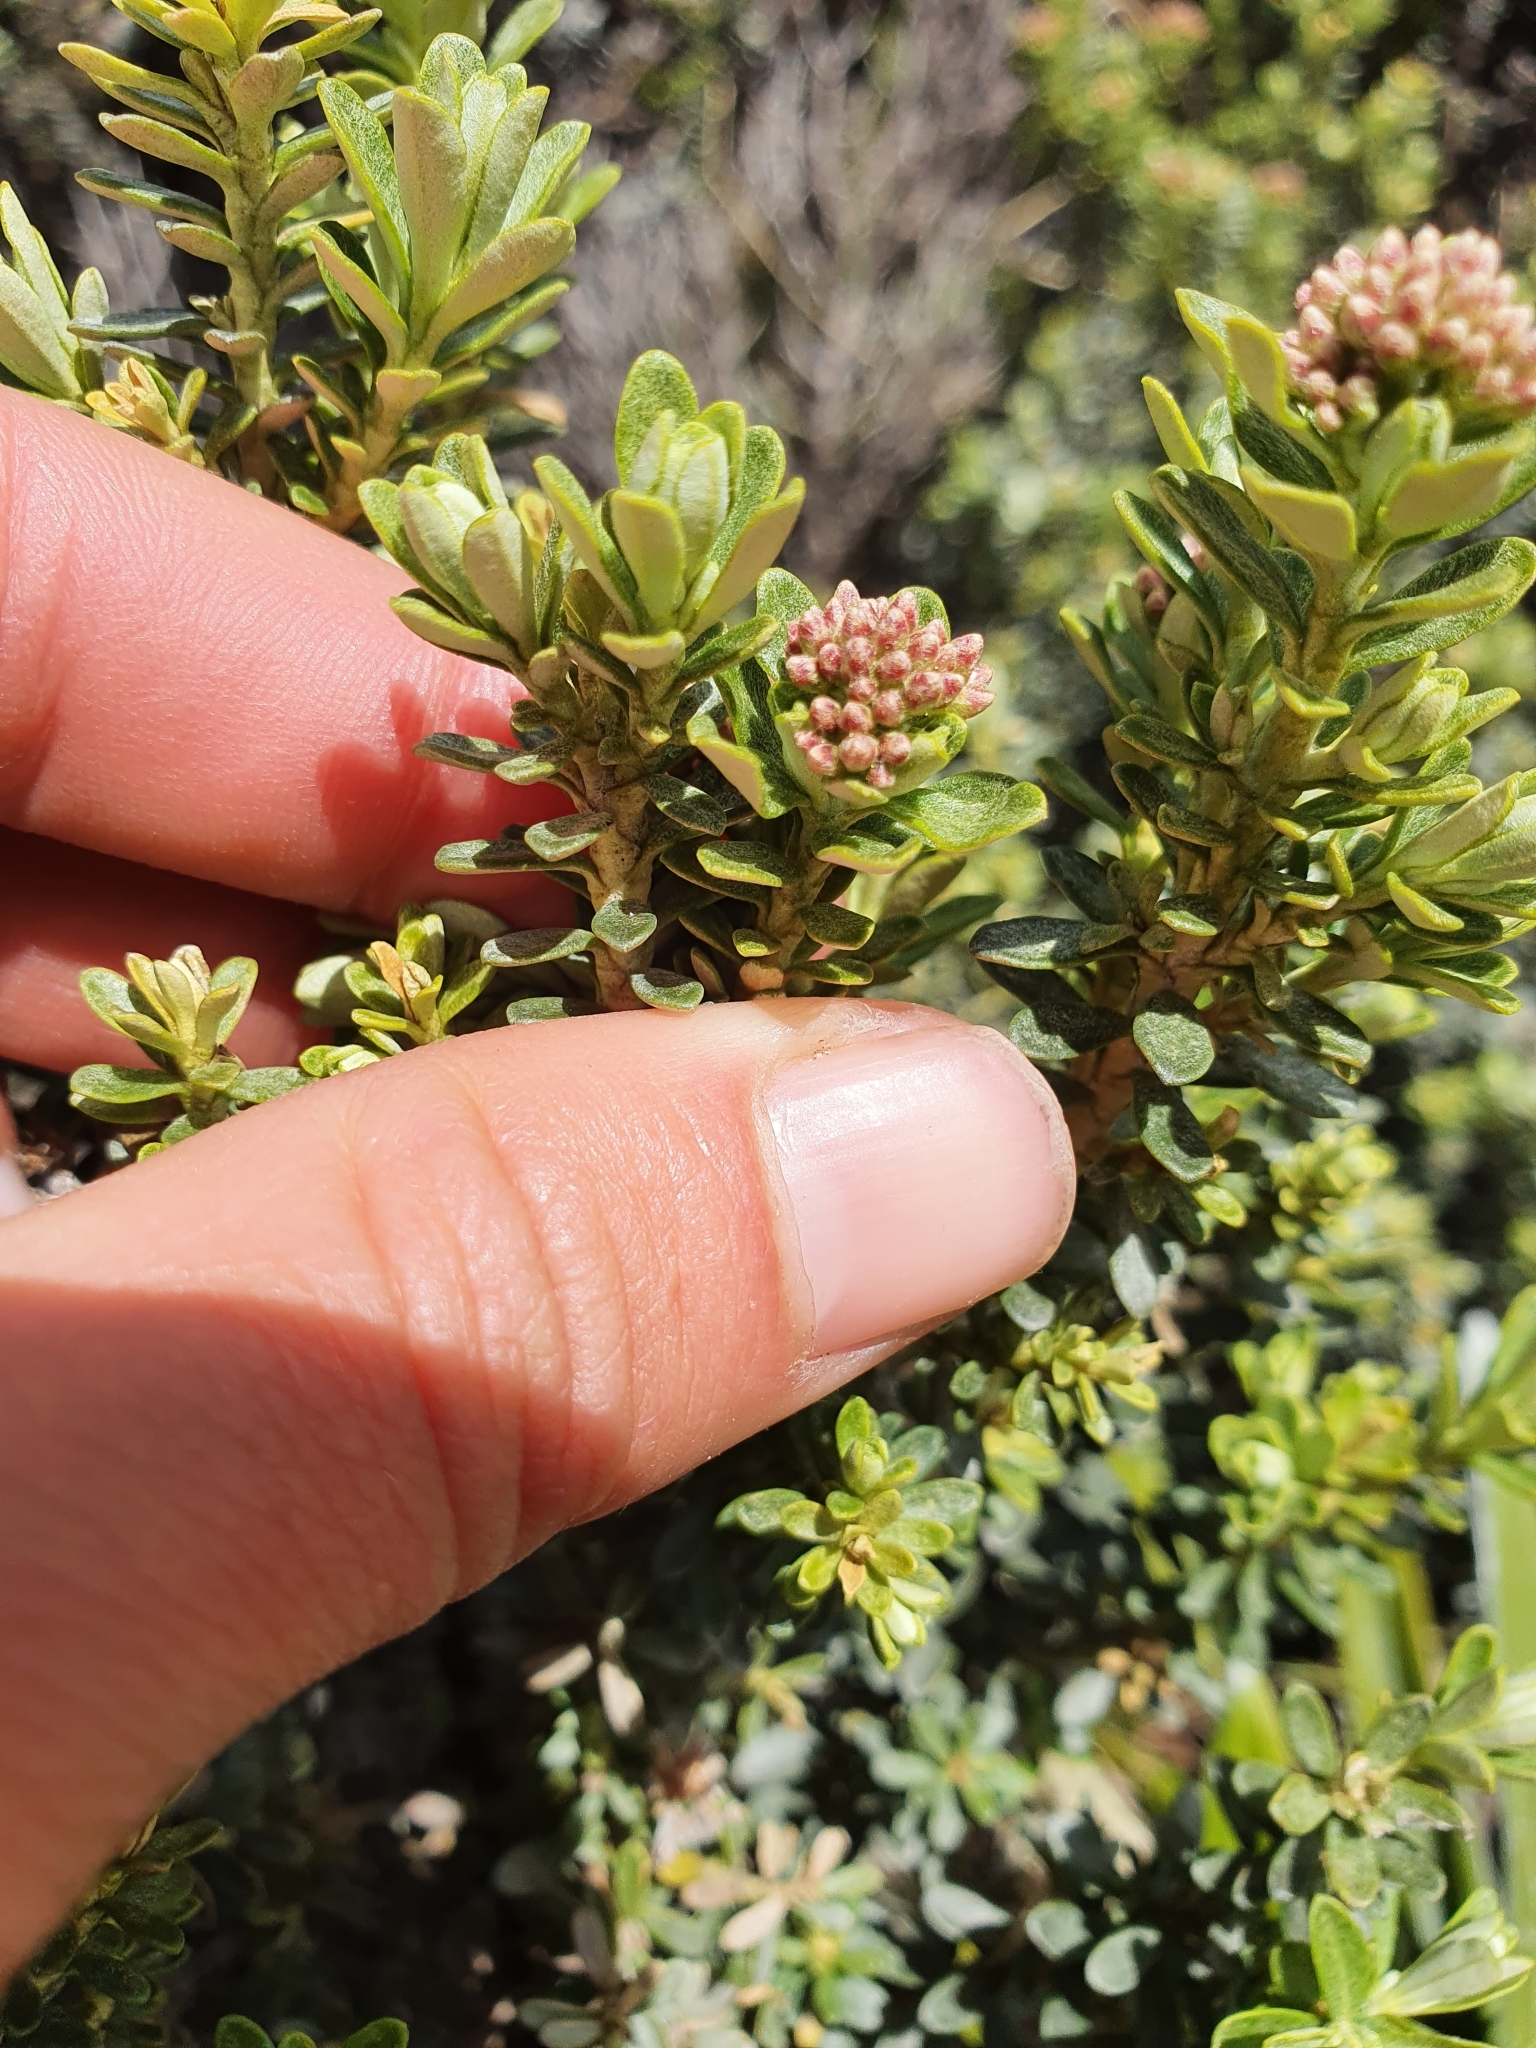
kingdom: Plantae
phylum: Tracheophyta
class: Magnoliopsida
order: Asterales
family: Asteraceae
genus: Ozothamnus
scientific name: Ozothamnus leptophyllus
